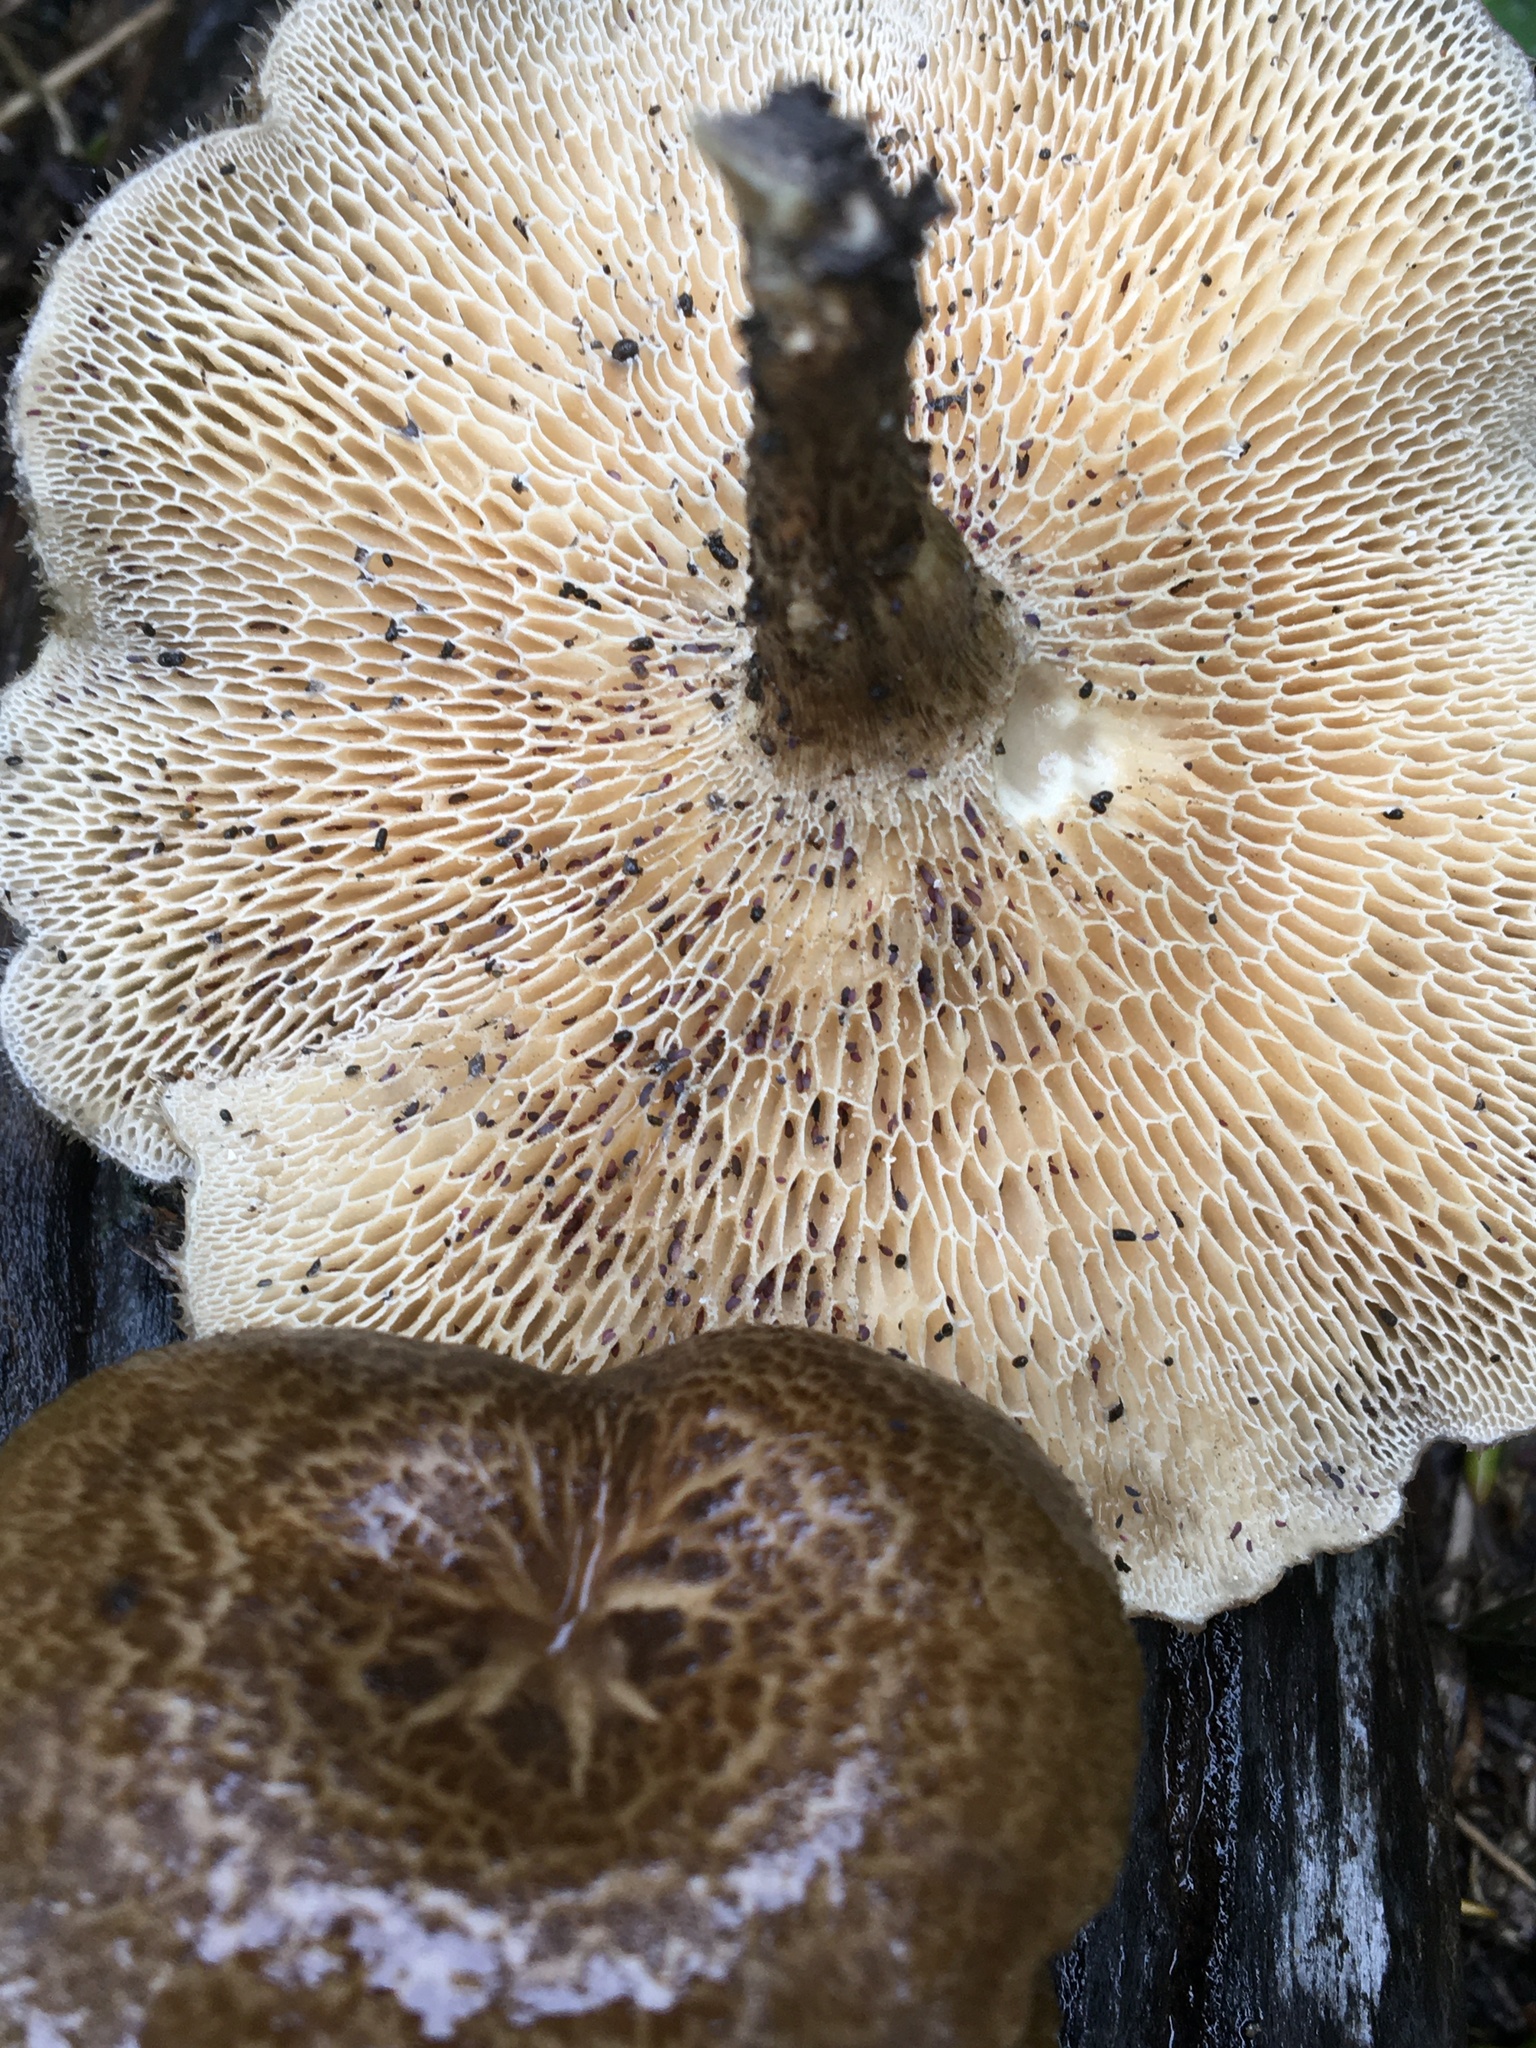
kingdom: Fungi
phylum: Basidiomycota
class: Agaricomycetes
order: Polyporales
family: Polyporaceae
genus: Lentinus
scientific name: Lentinus arcularius
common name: Spring polypore
